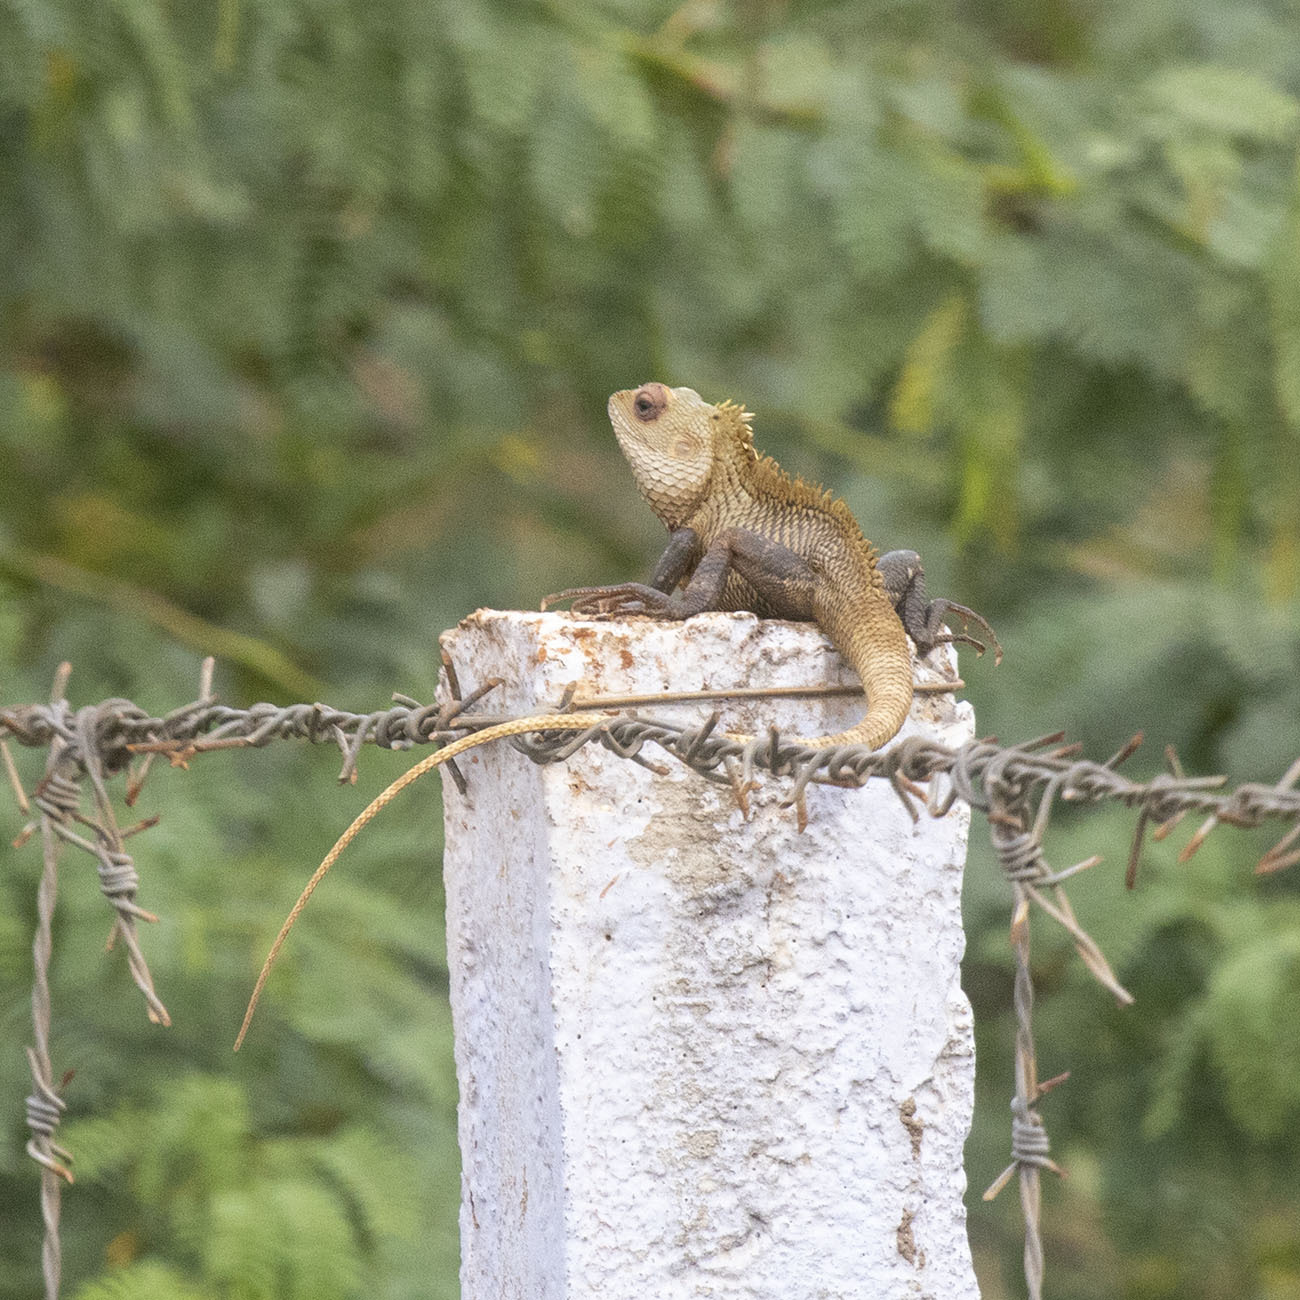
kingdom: Animalia
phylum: Chordata
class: Squamata
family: Agamidae
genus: Calotes
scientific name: Calotes versicolor
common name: Oriental garden lizard
